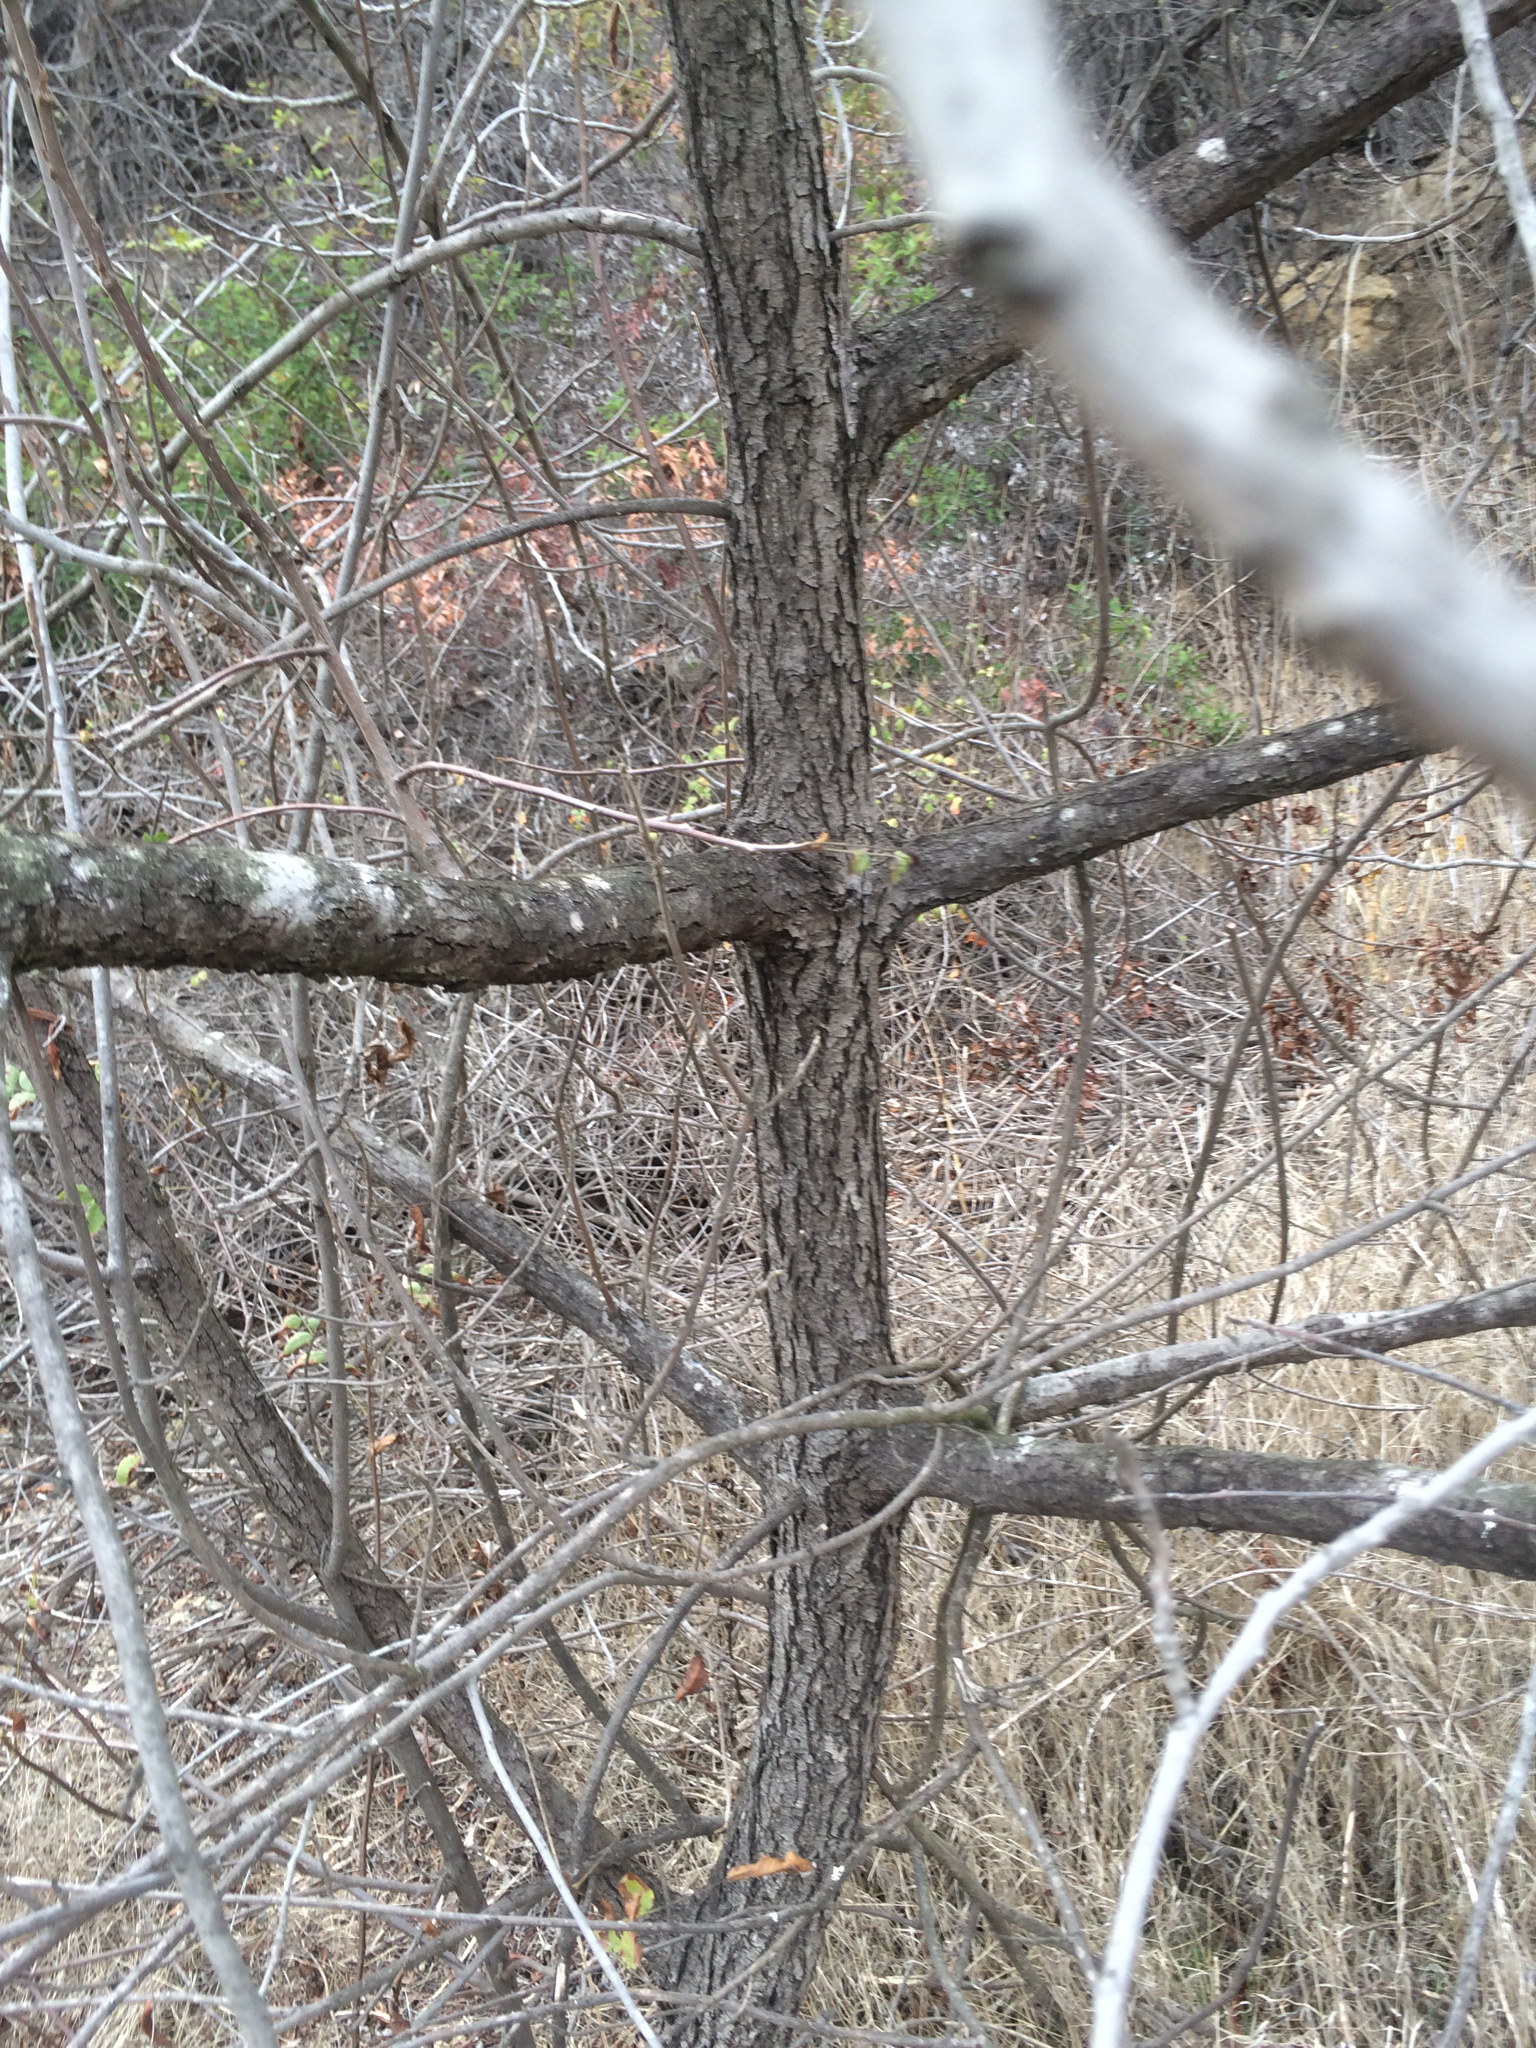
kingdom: Plantae
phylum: Tracheophyta
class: Magnoliopsida
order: Fagales
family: Juglandaceae
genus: Juglans
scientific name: Juglans californica
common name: Southern california black walnut
